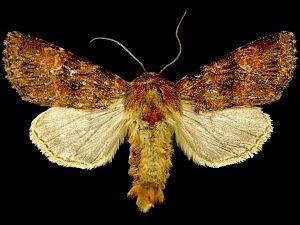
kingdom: Animalia
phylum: Arthropoda
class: Insecta
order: Lepidoptera
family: Noctuidae
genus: Apamea
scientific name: Apamea zeta
